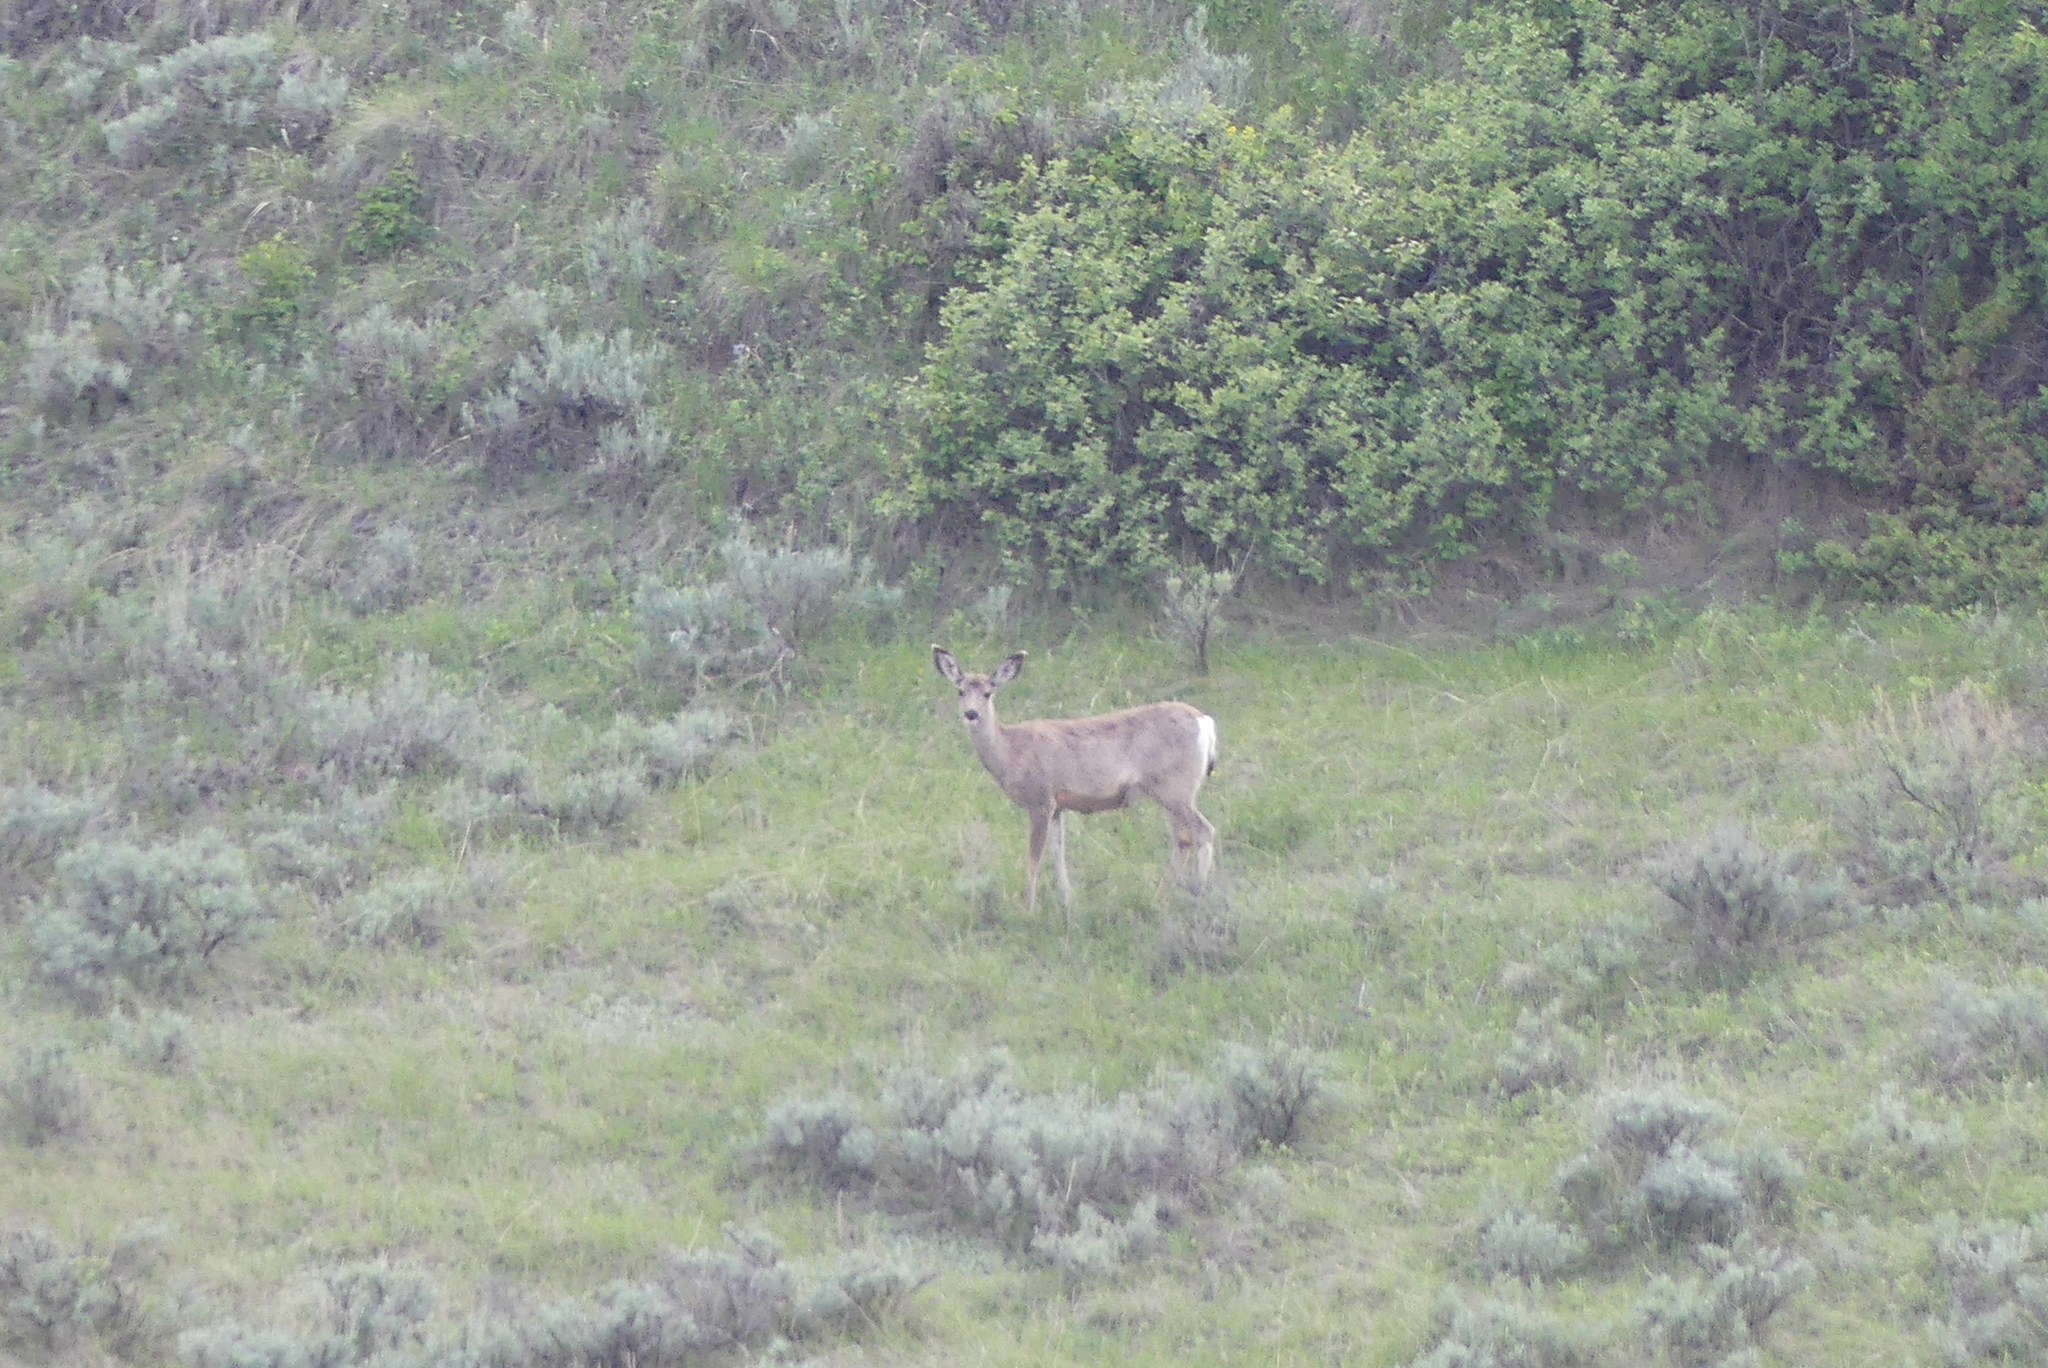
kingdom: Animalia
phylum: Chordata
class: Mammalia
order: Artiodactyla
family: Cervidae
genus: Odocoileus
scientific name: Odocoileus hemionus
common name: Mule deer
